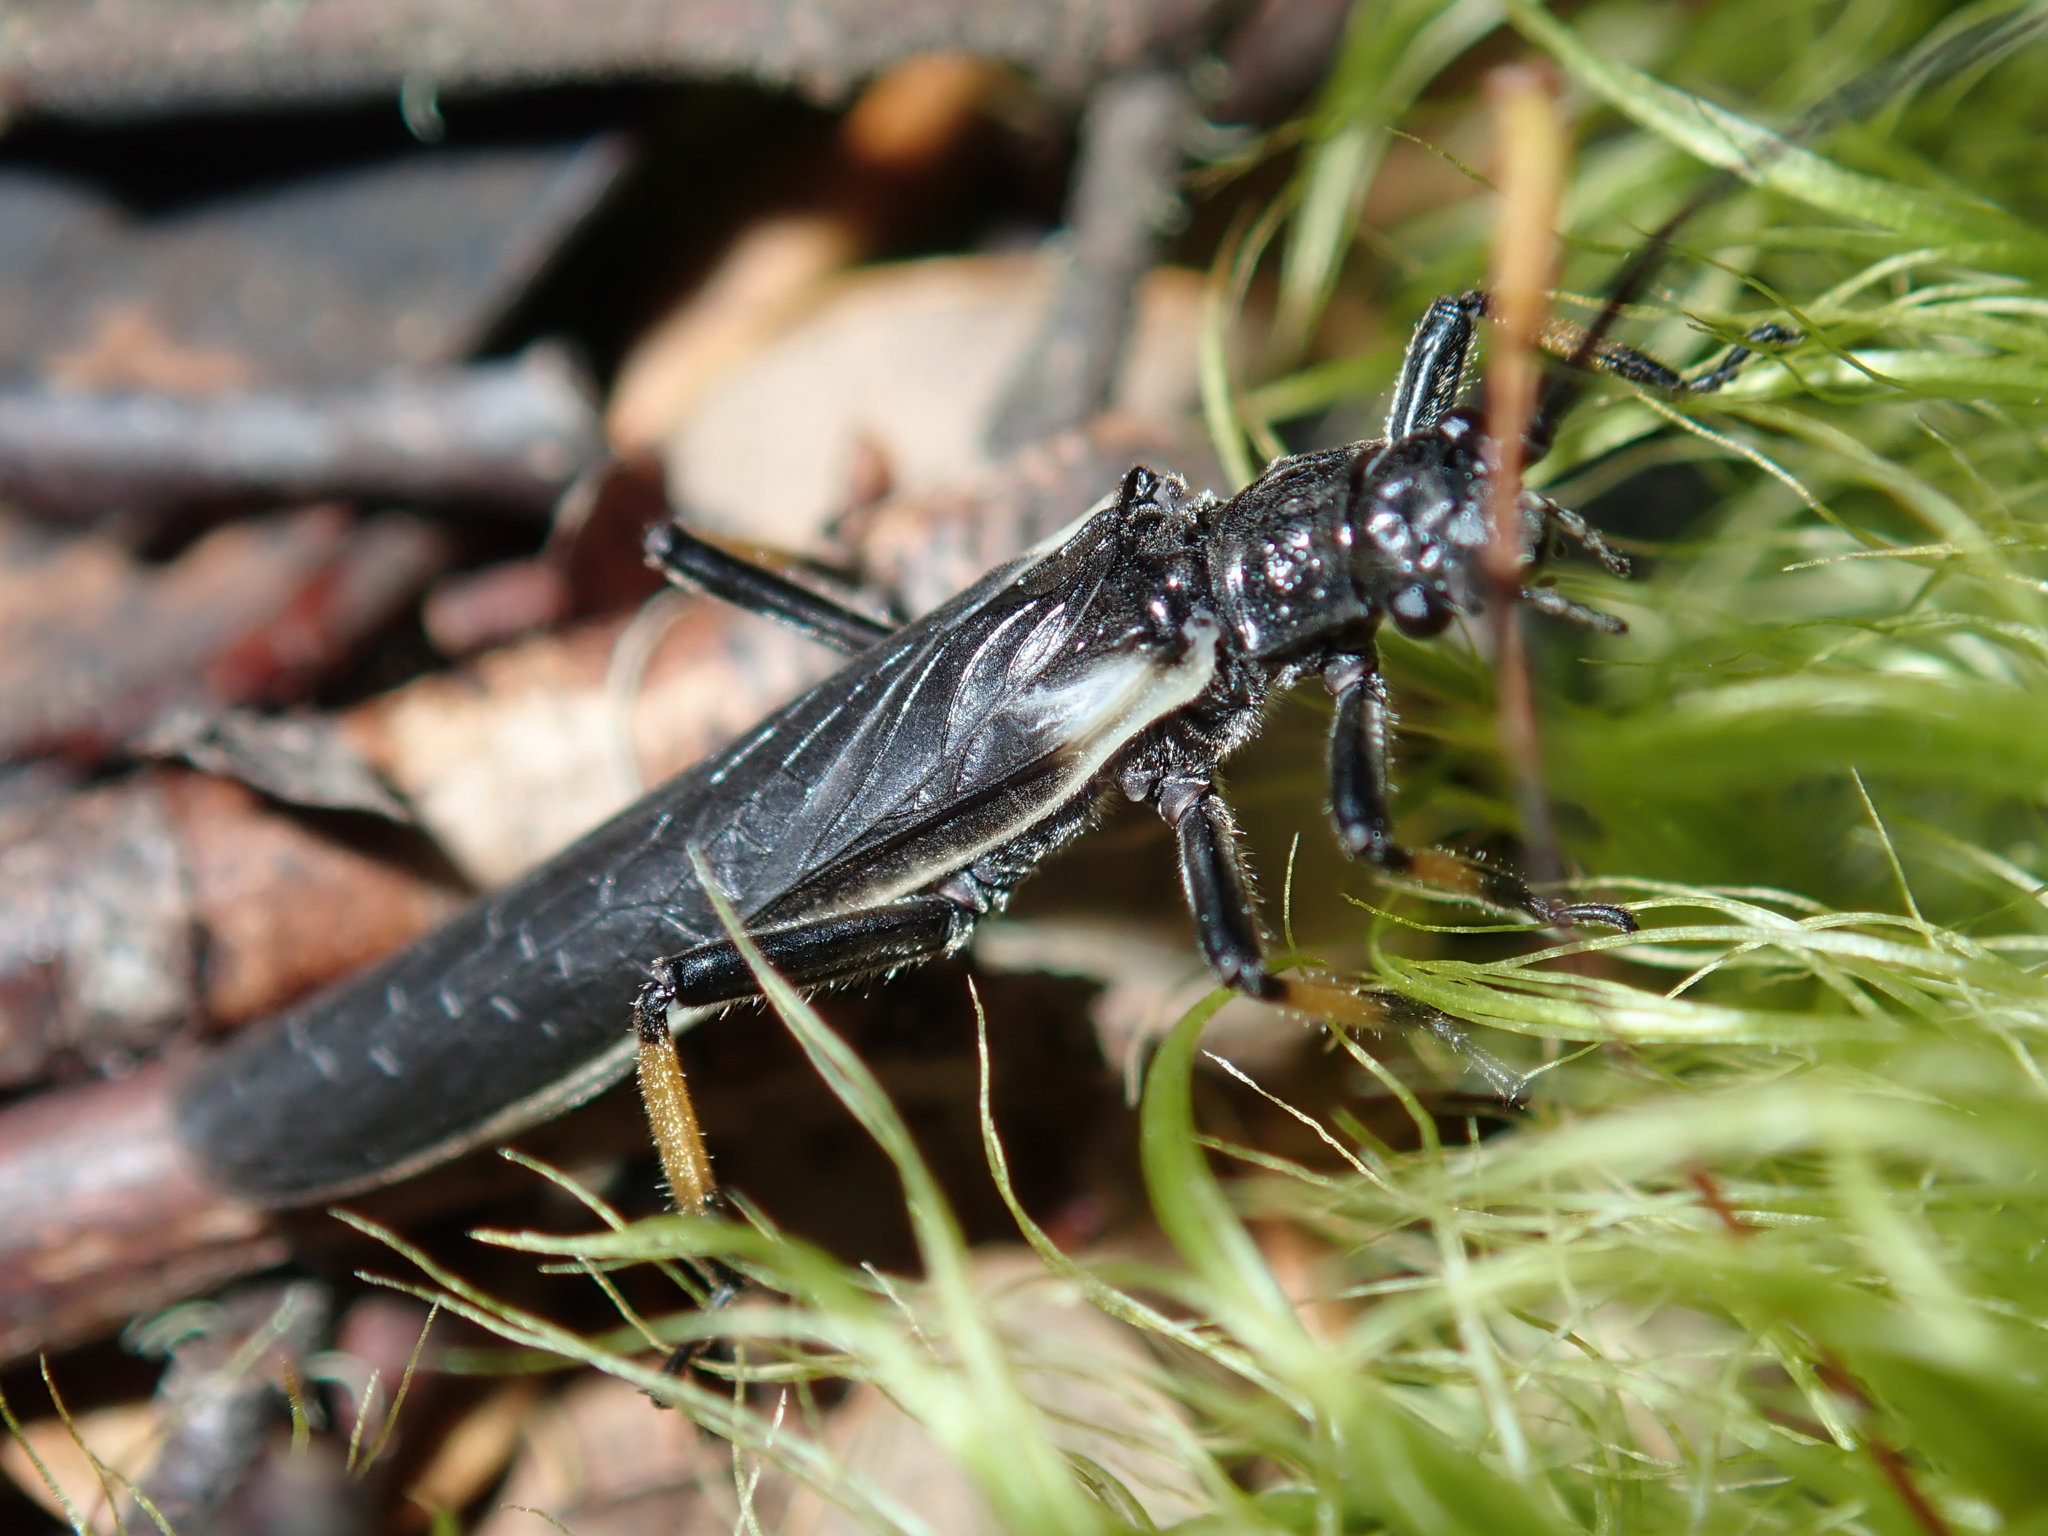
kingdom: Animalia
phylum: Arthropoda
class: Insecta
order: Plecoptera
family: Austroperlidae
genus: Austroperla
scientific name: Austroperla cyrene
